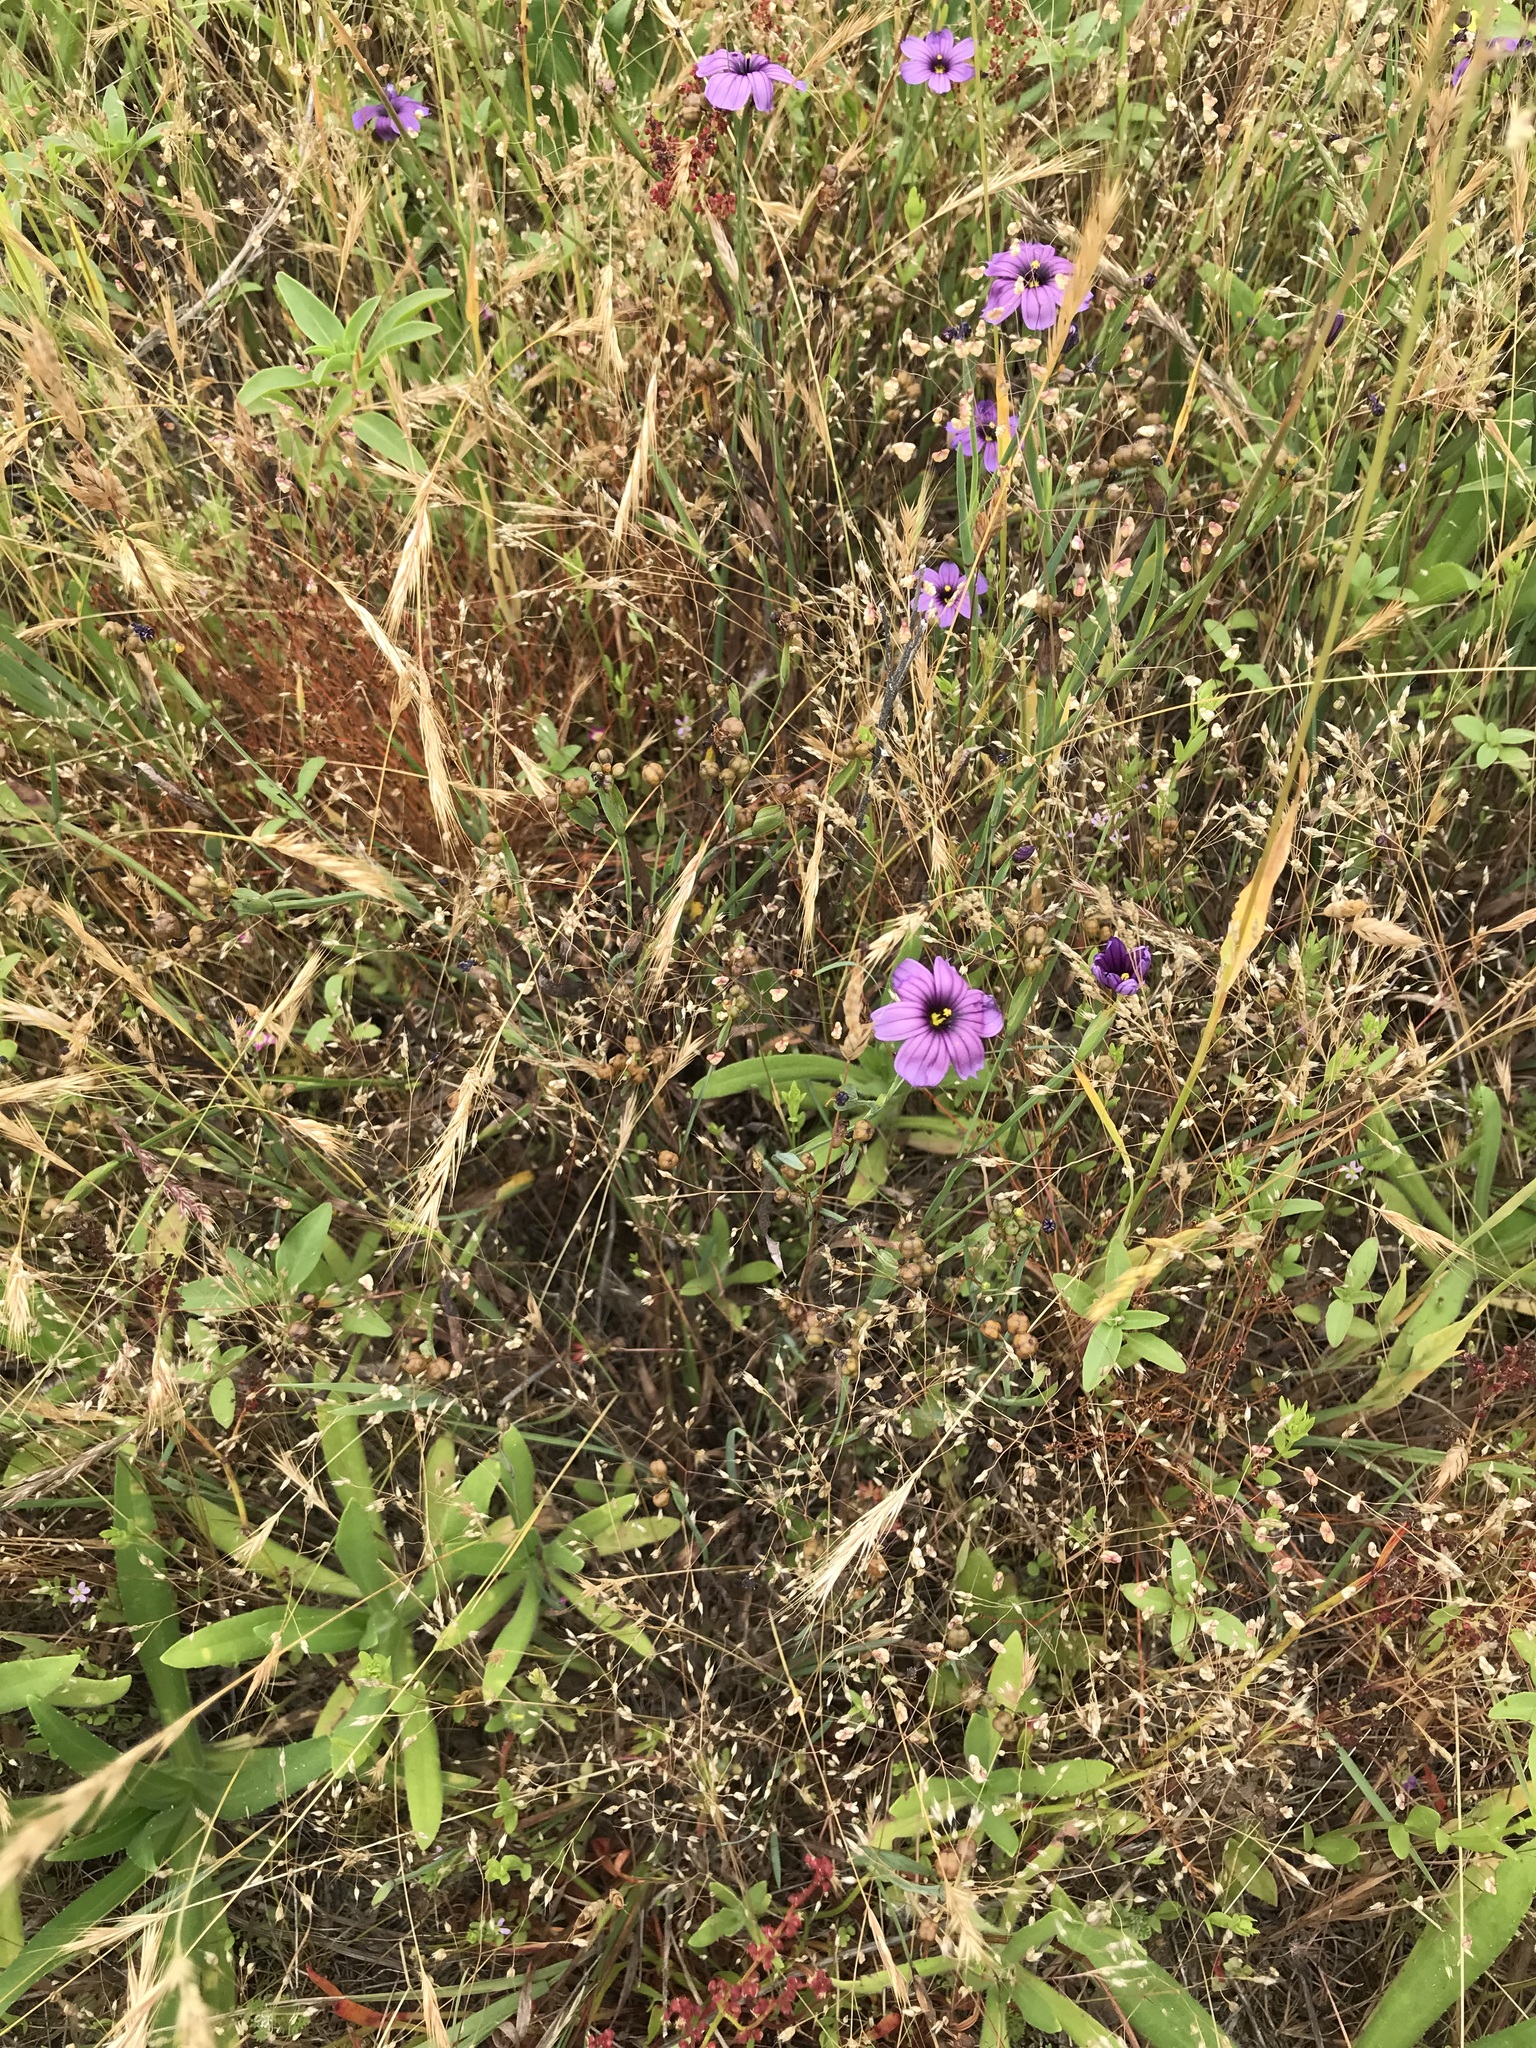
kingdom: Plantae
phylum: Tracheophyta
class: Liliopsida
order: Asparagales
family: Iridaceae
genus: Sisyrinchium
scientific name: Sisyrinchium bellum
